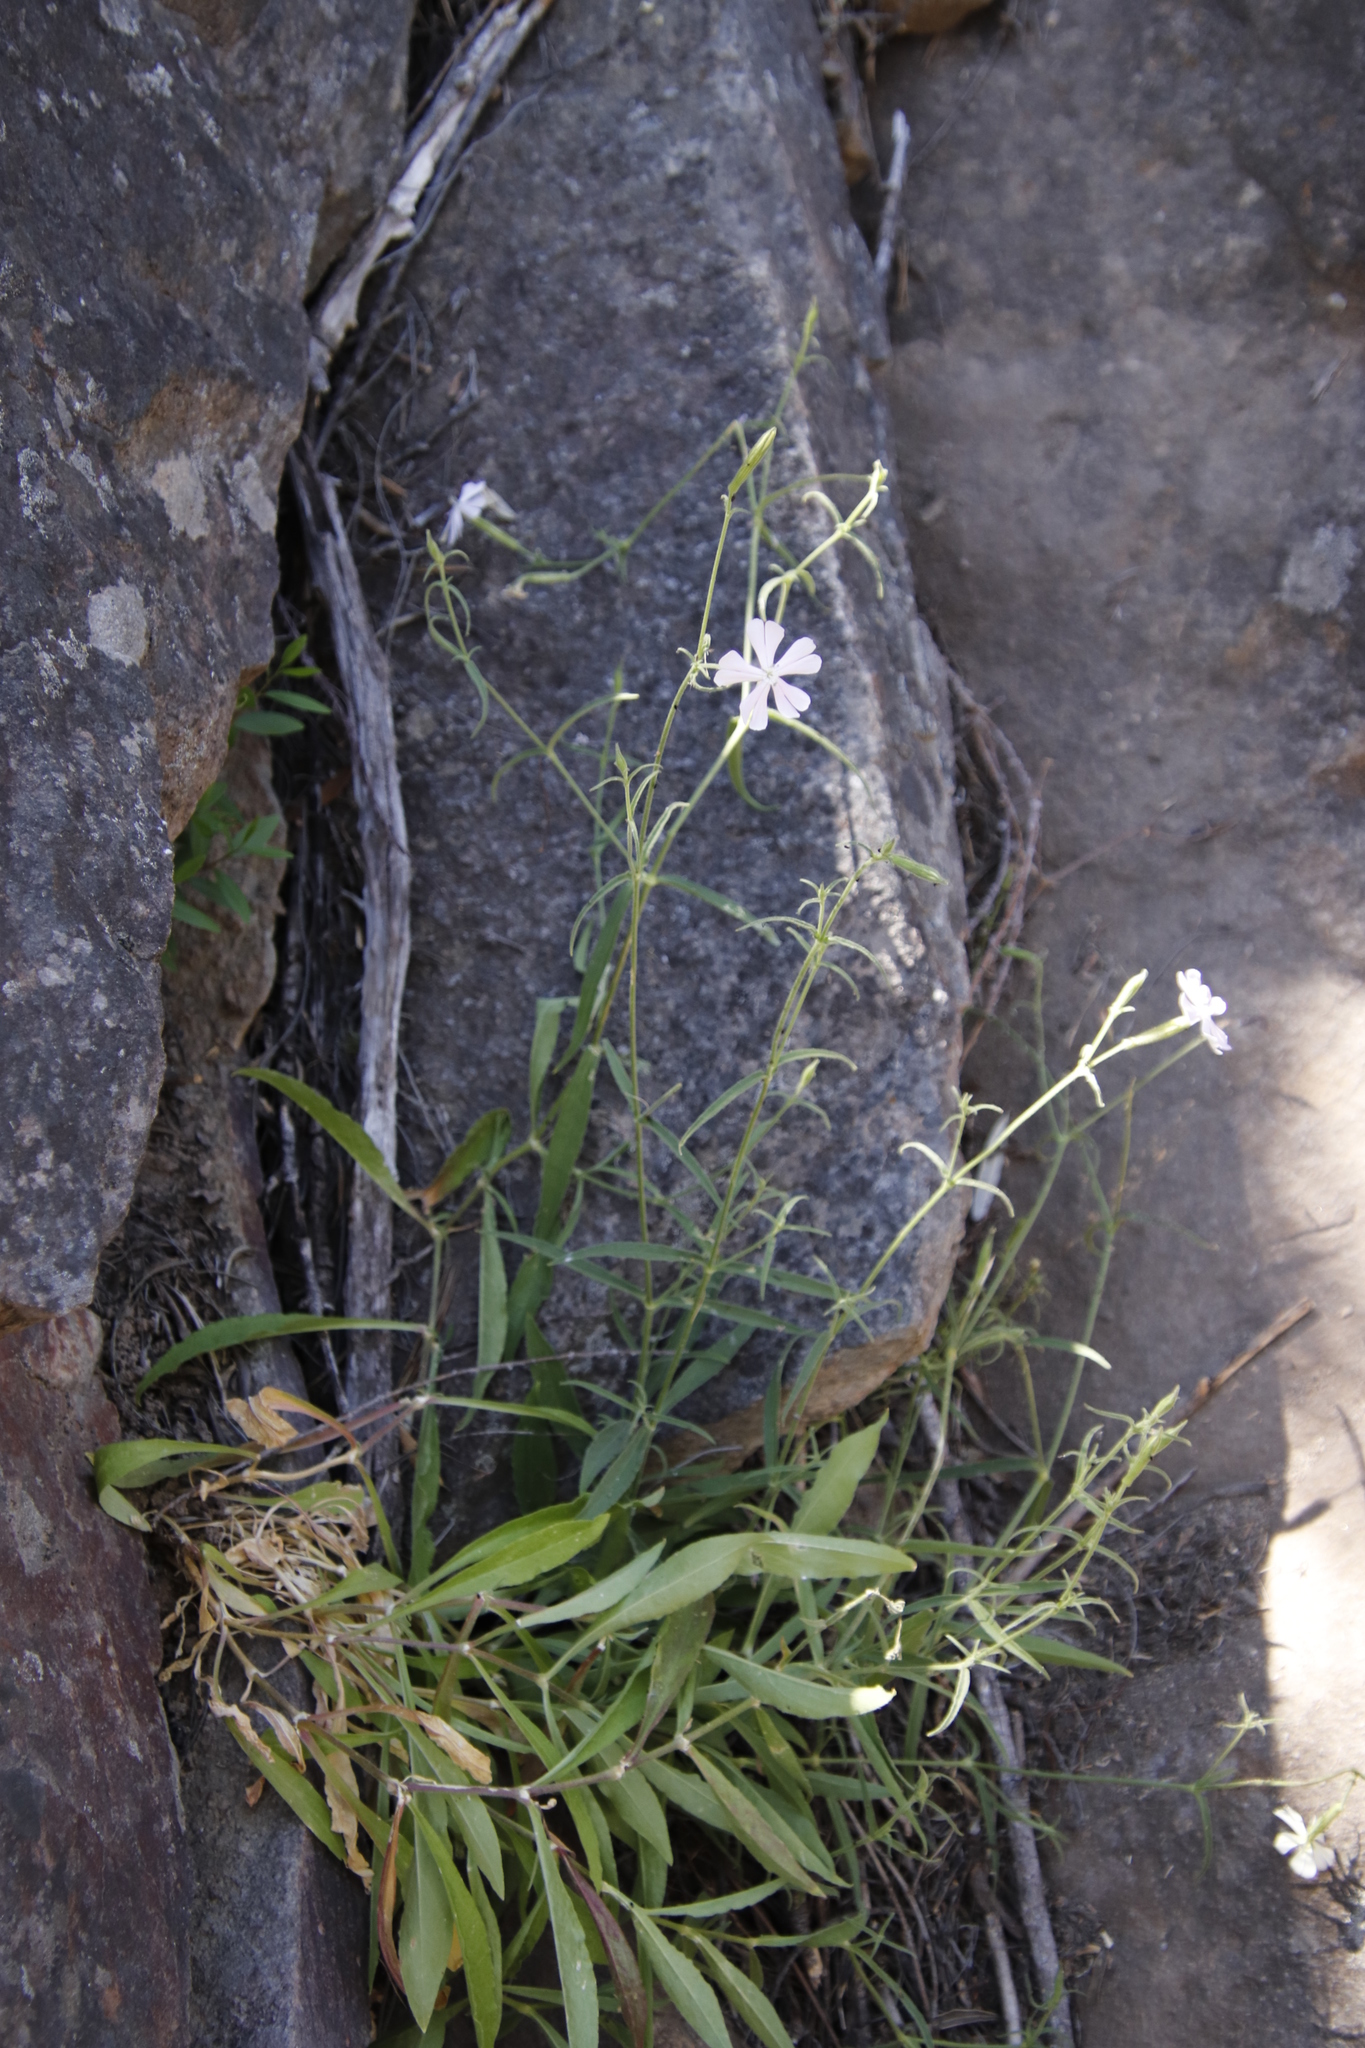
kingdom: Plantae
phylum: Tracheophyta
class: Magnoliopsida
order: Caryophyllales
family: Caryophyllaceae
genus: Silene
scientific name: Silene undulata
